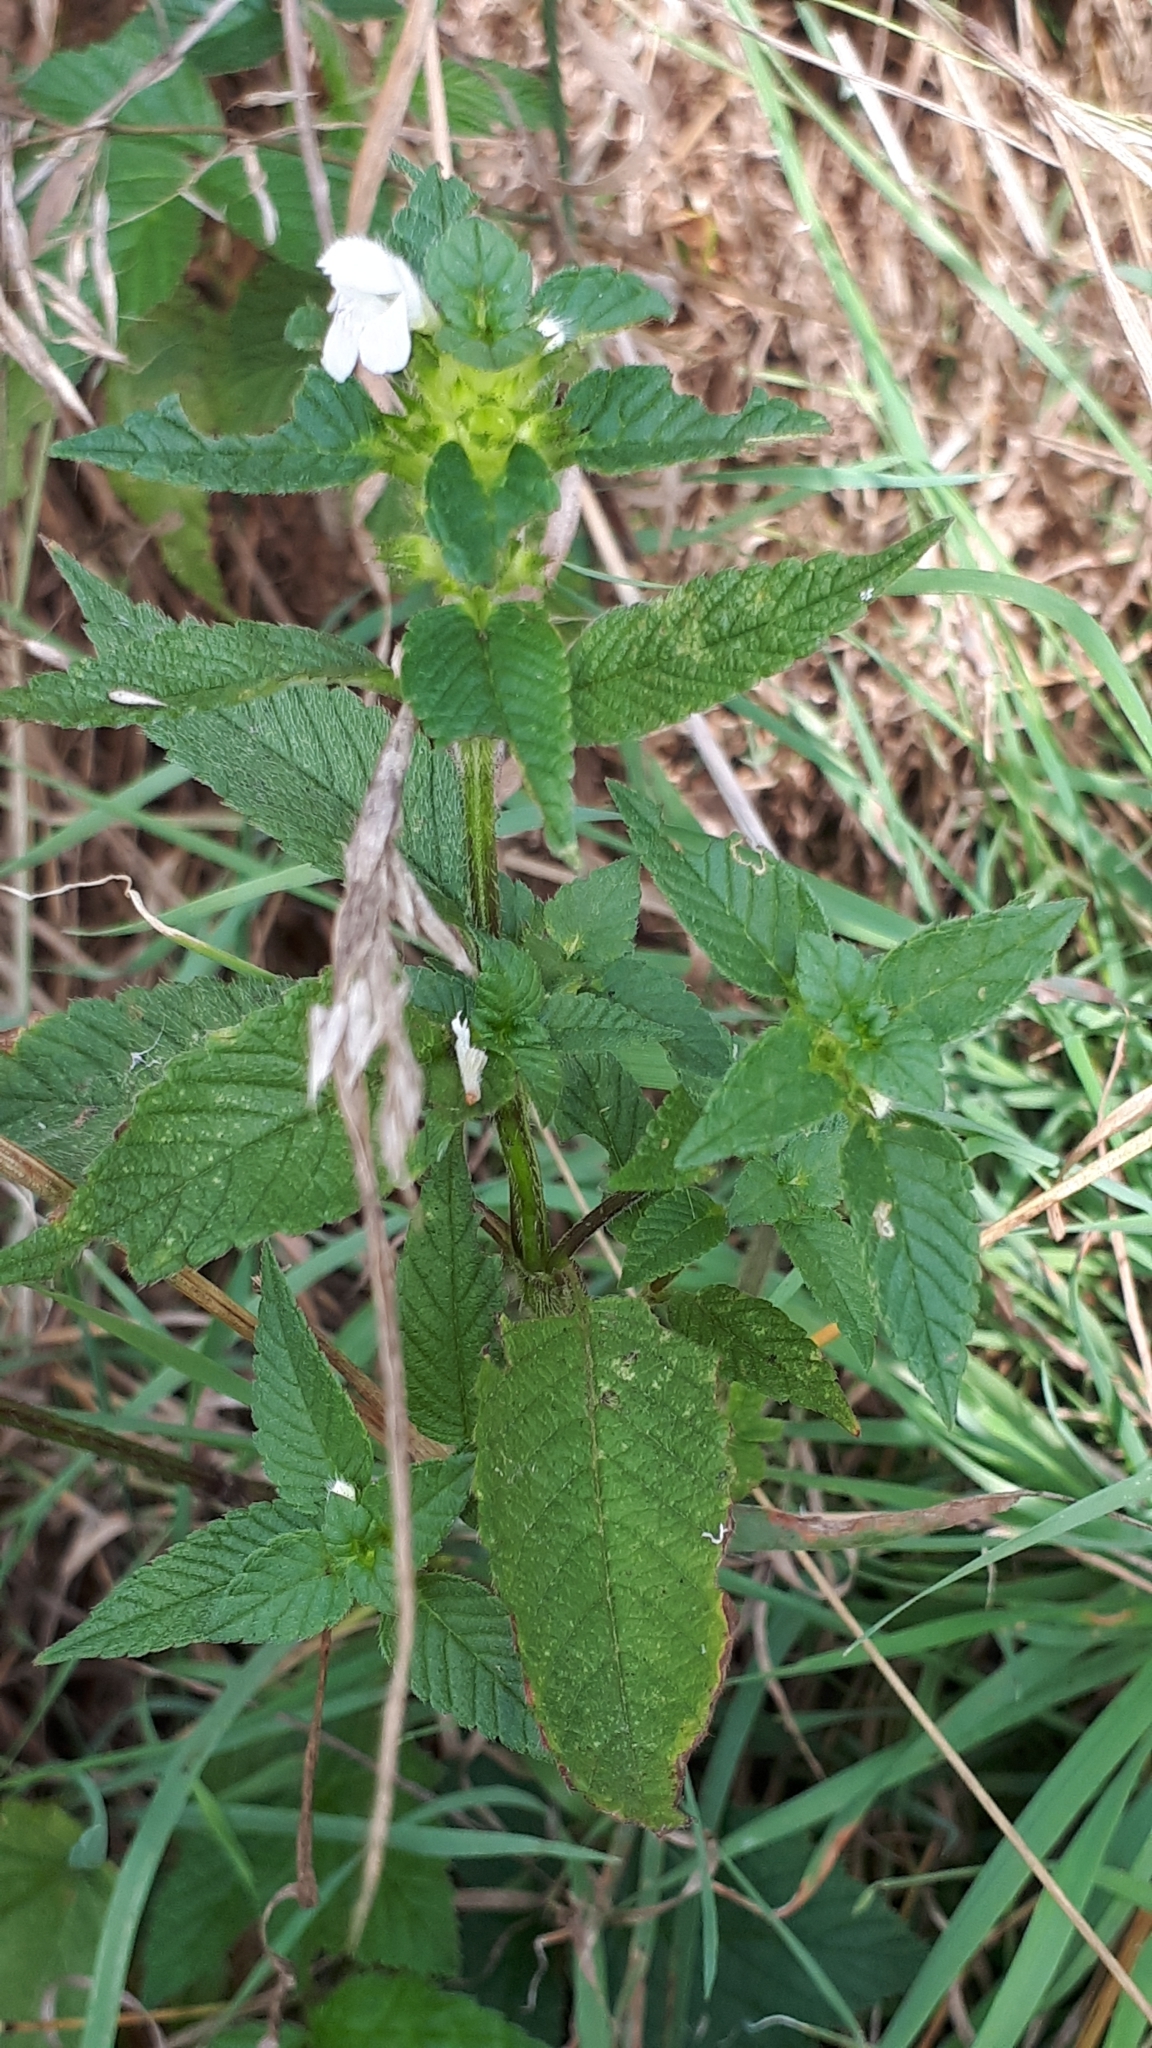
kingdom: Plantae
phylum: Tracheophyta
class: Magnoliopsida
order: Lamiales
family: Lamiaceae
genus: Galeopsis
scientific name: Galeopsis tetrahit
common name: Common hemp-nettle
